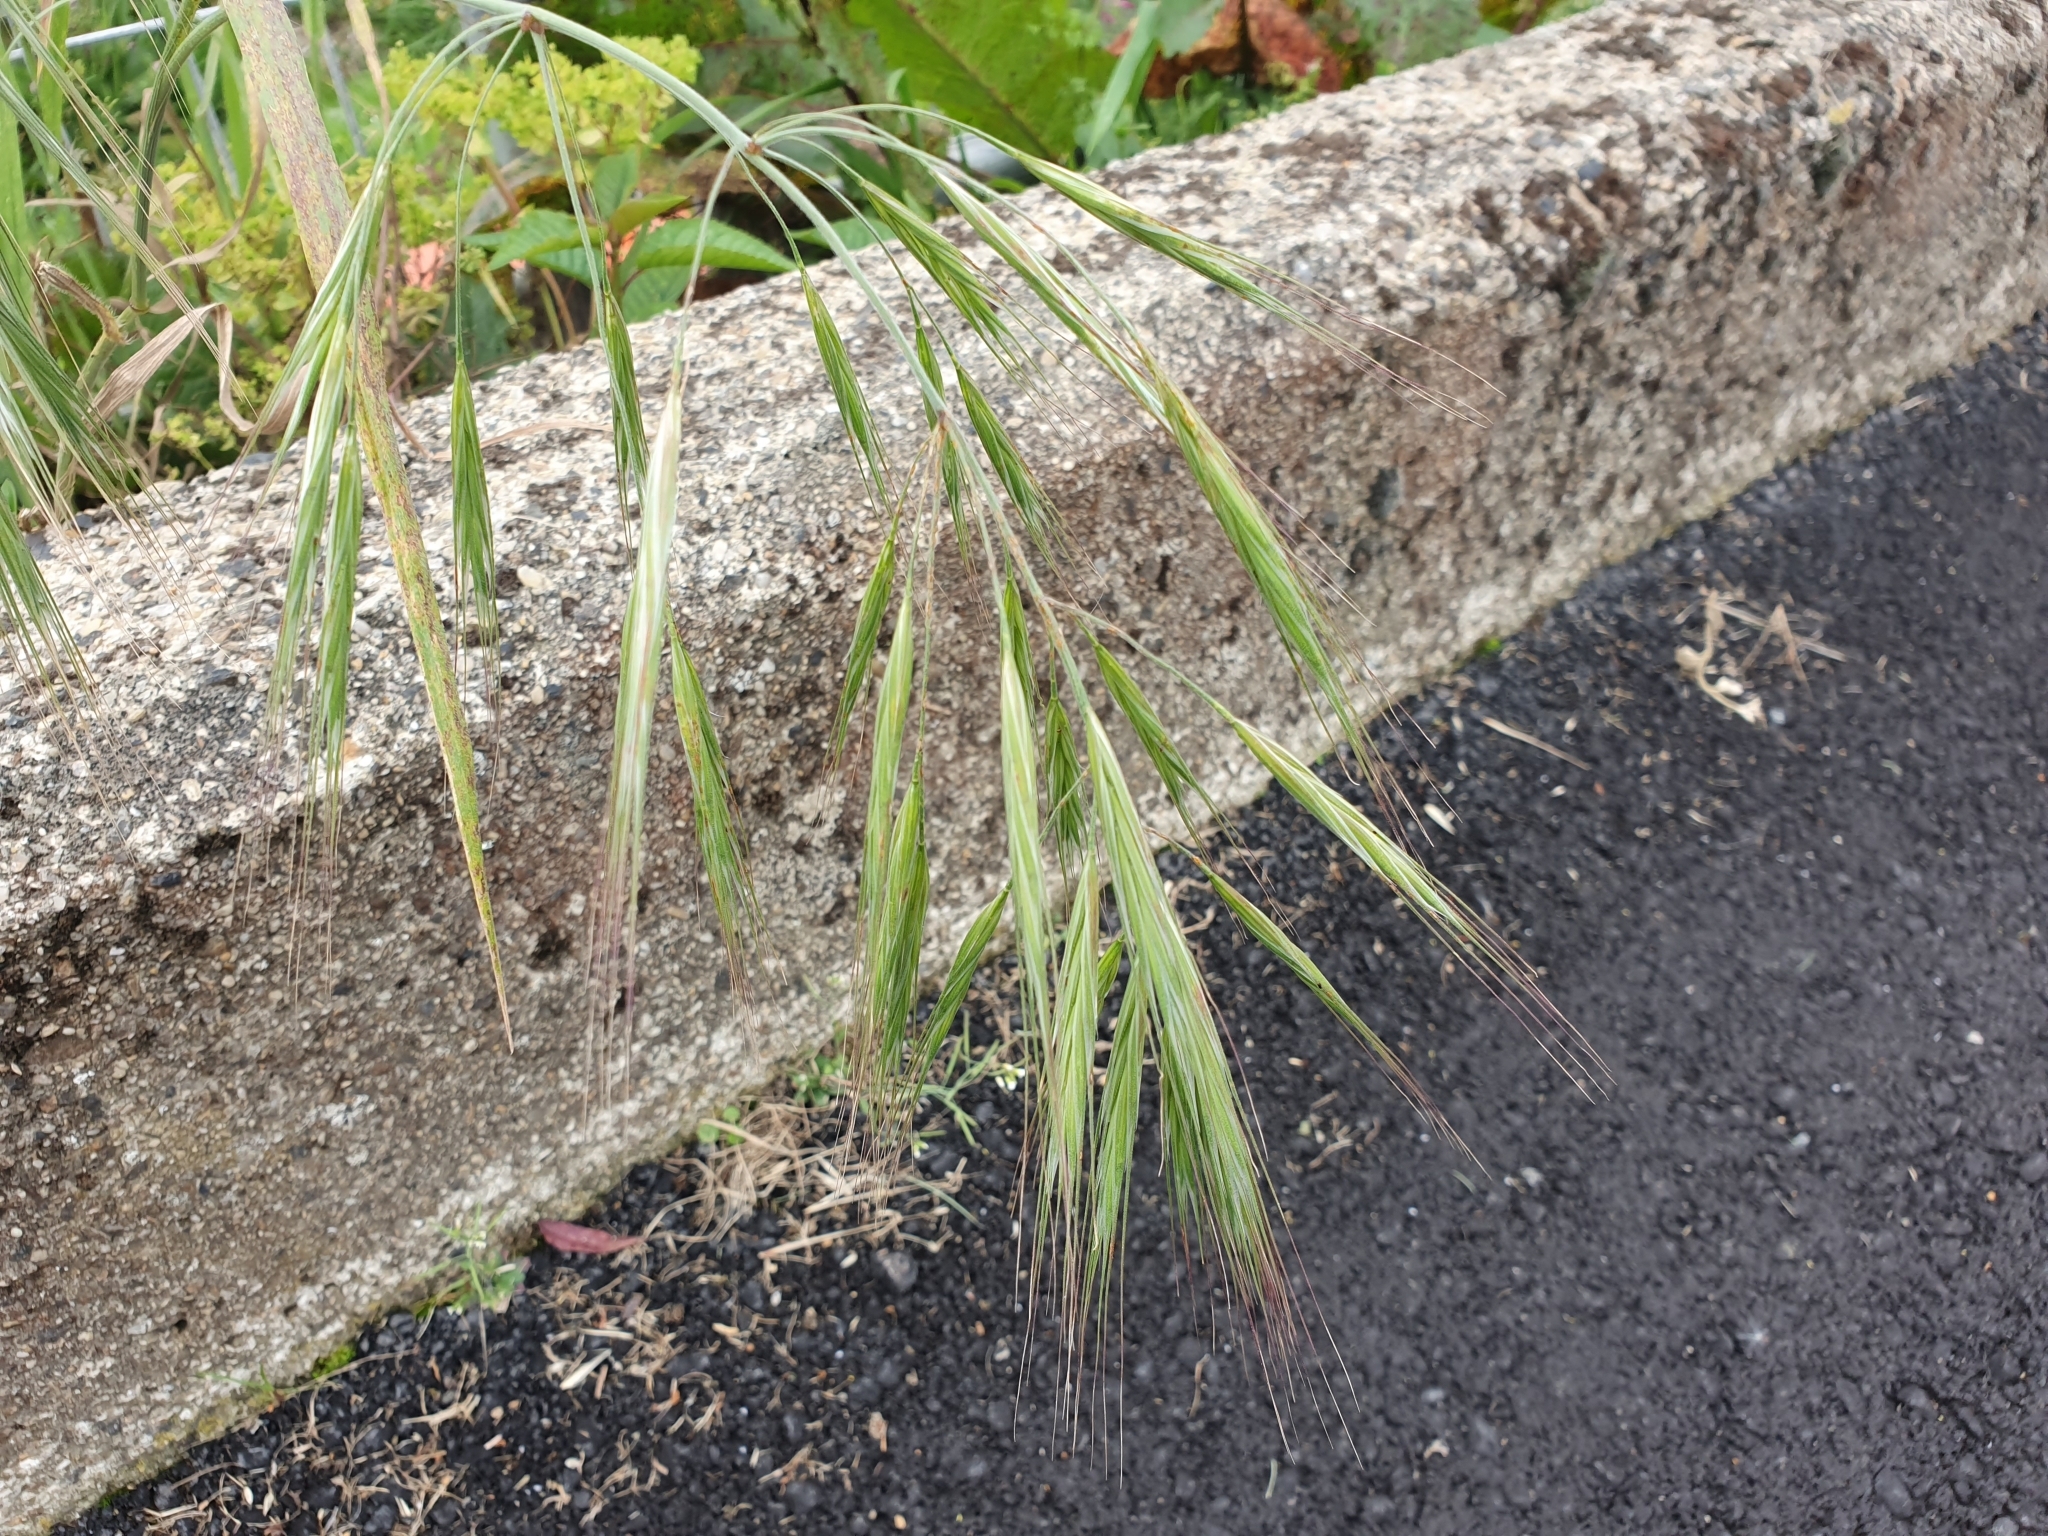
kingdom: Plantae
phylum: Tracheophyta
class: Liliopsida
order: Poales
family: Poaceae
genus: Bromus
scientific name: Bromus diandrus
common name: Ripgut brome
